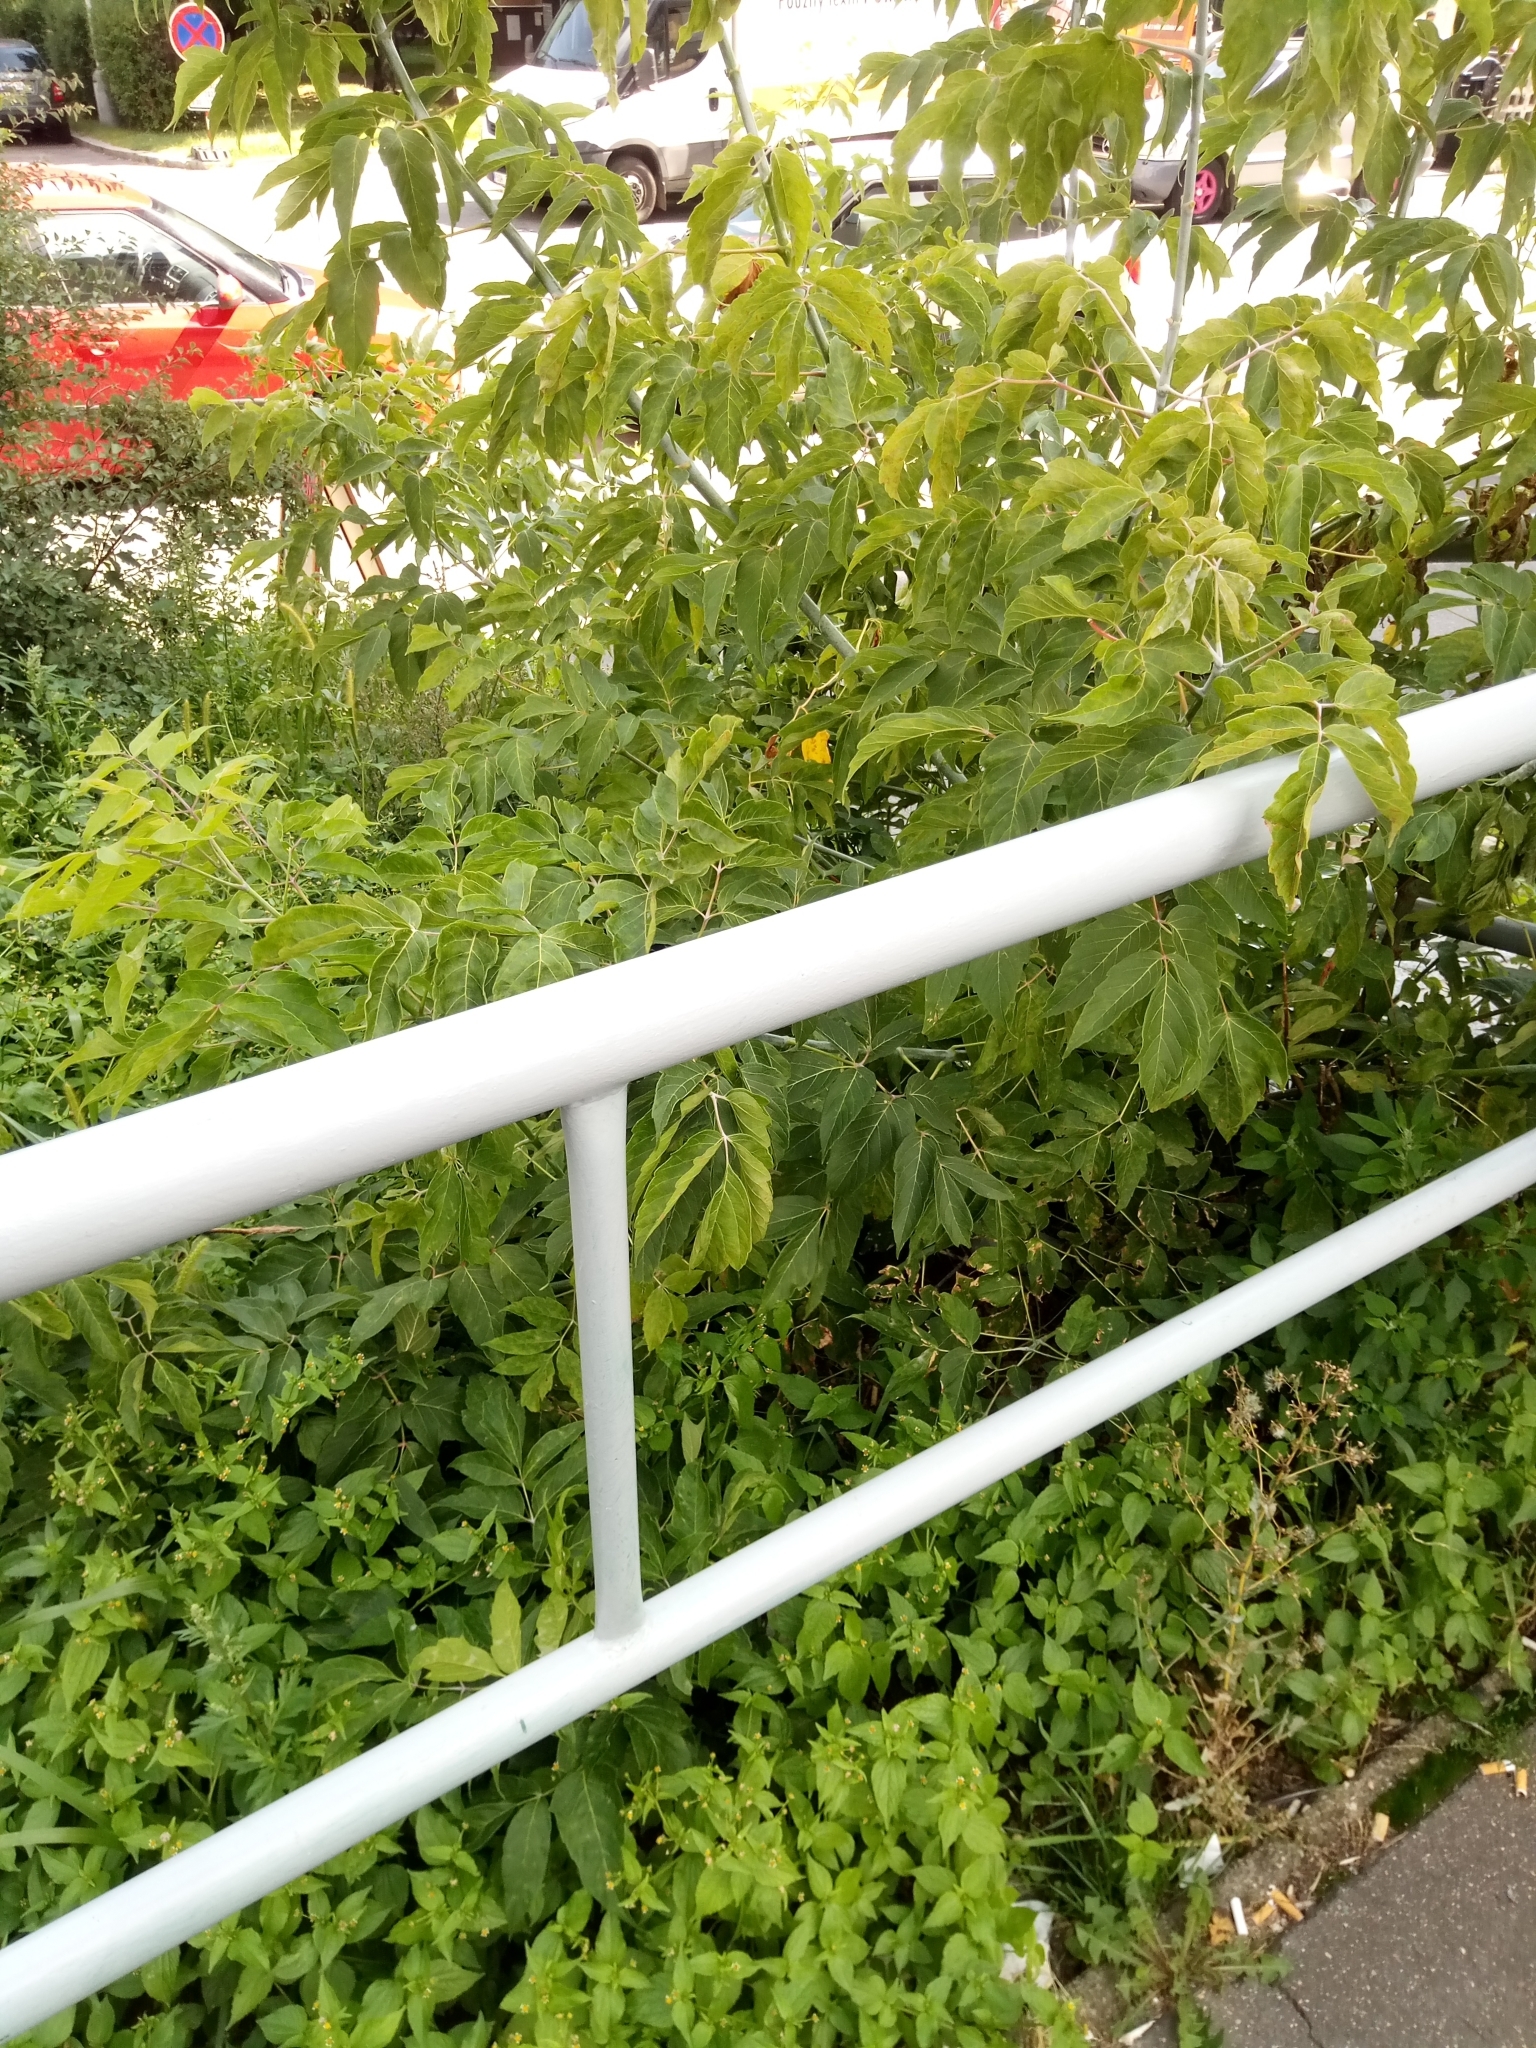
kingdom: Plantae
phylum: Tracheophyta
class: Magnoliopsida
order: Sapindales
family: Sapindaceae
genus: Acer
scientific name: Acer negundo
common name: Ashleaf maple
